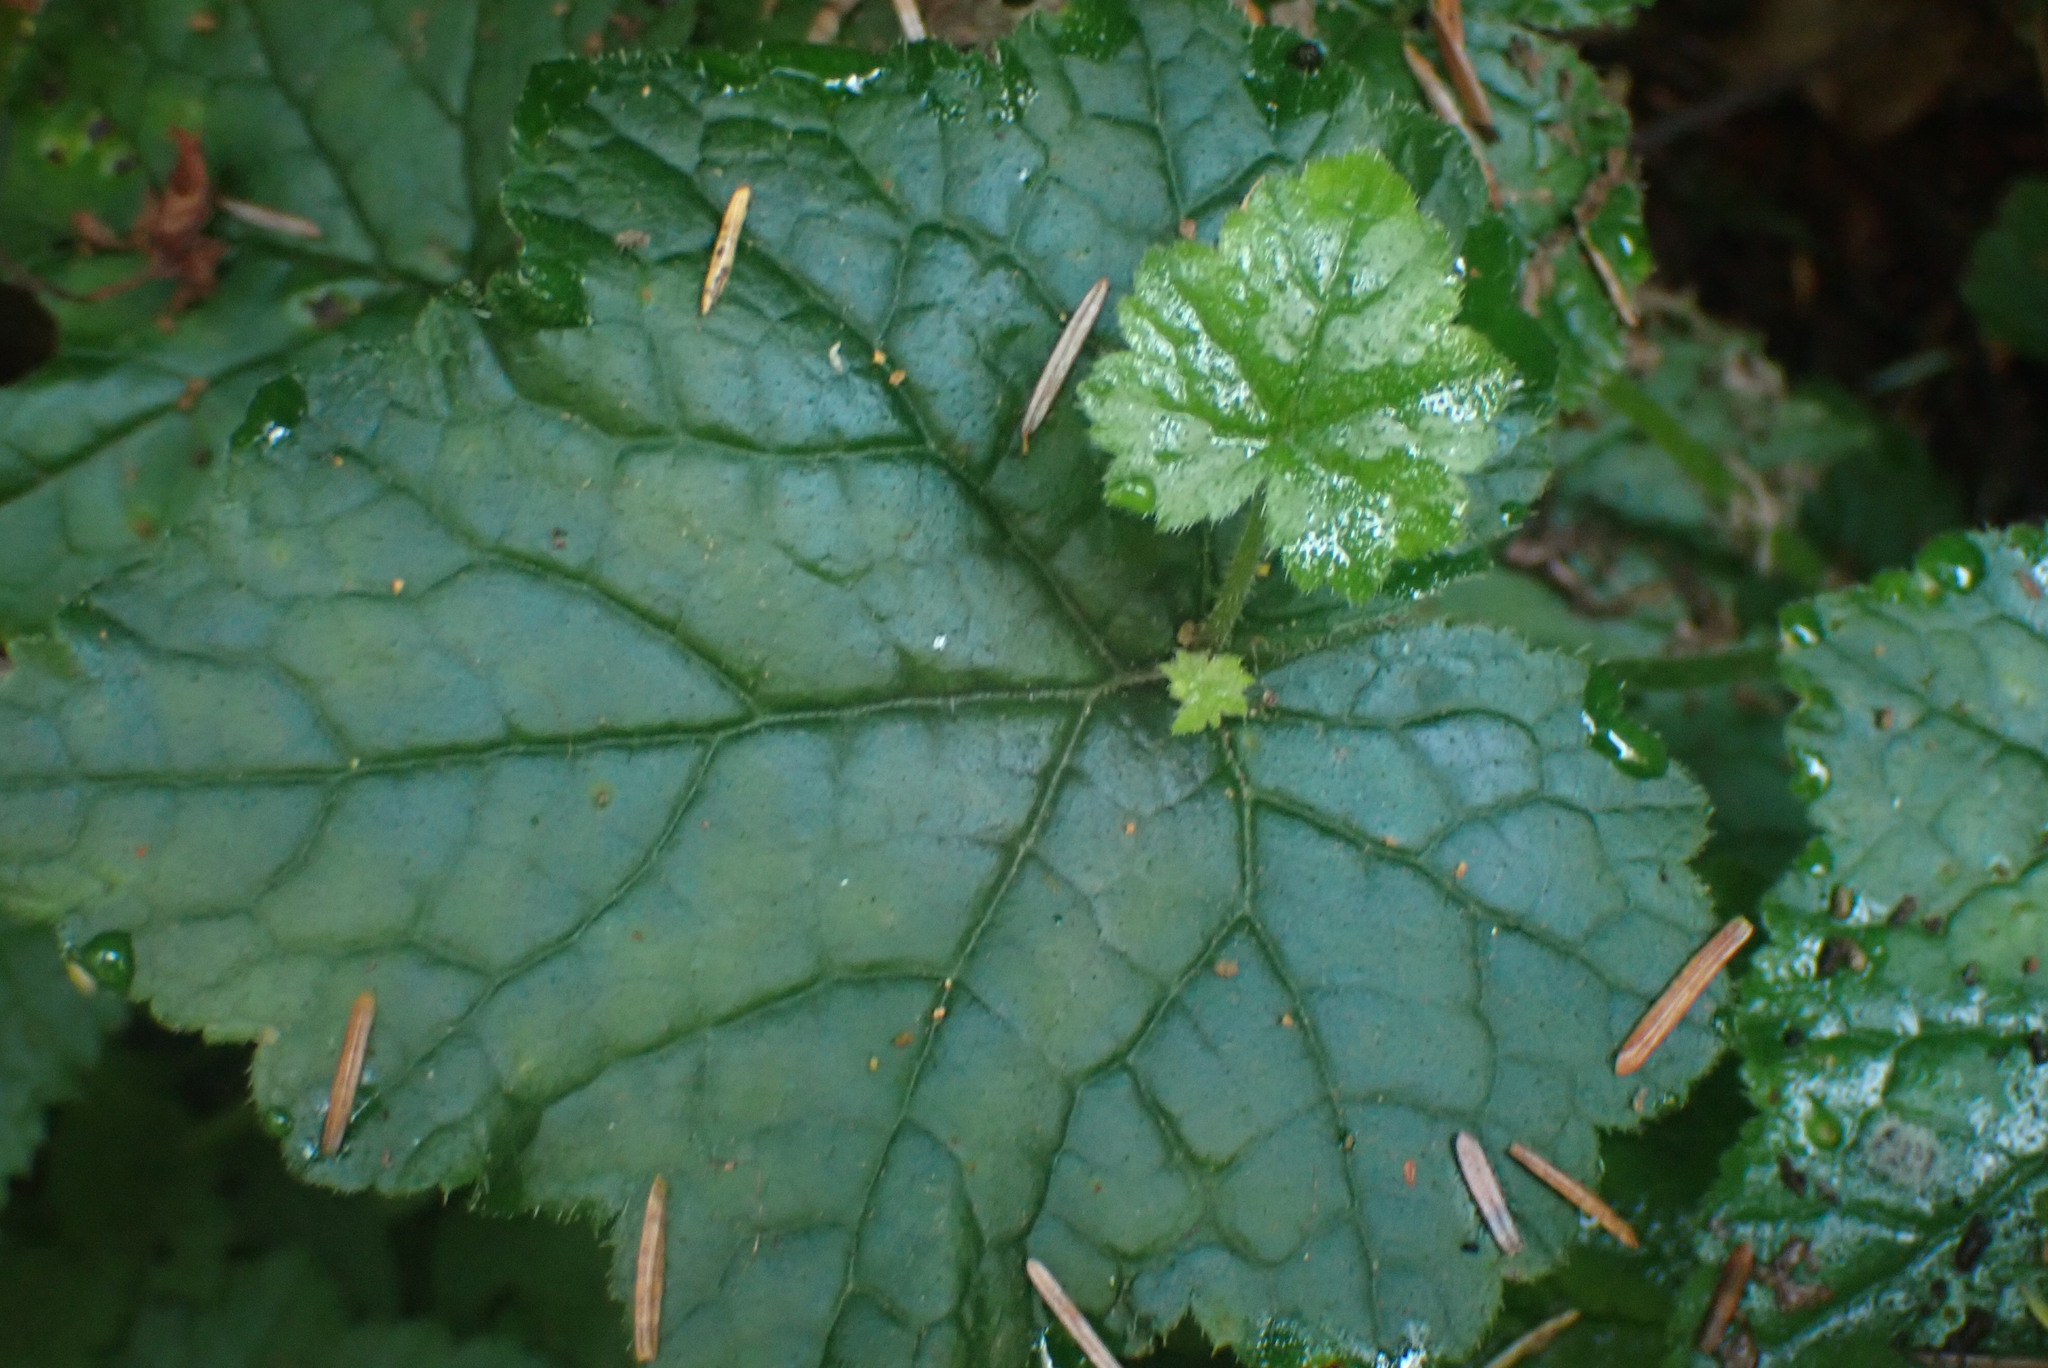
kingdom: Plantae
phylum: Tracheophyta
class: Magnoliopsida
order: Saxifragales
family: Saxifragaceae
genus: Tolmiea
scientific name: Tolmiea menziesii
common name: Pick-a-back-plant
